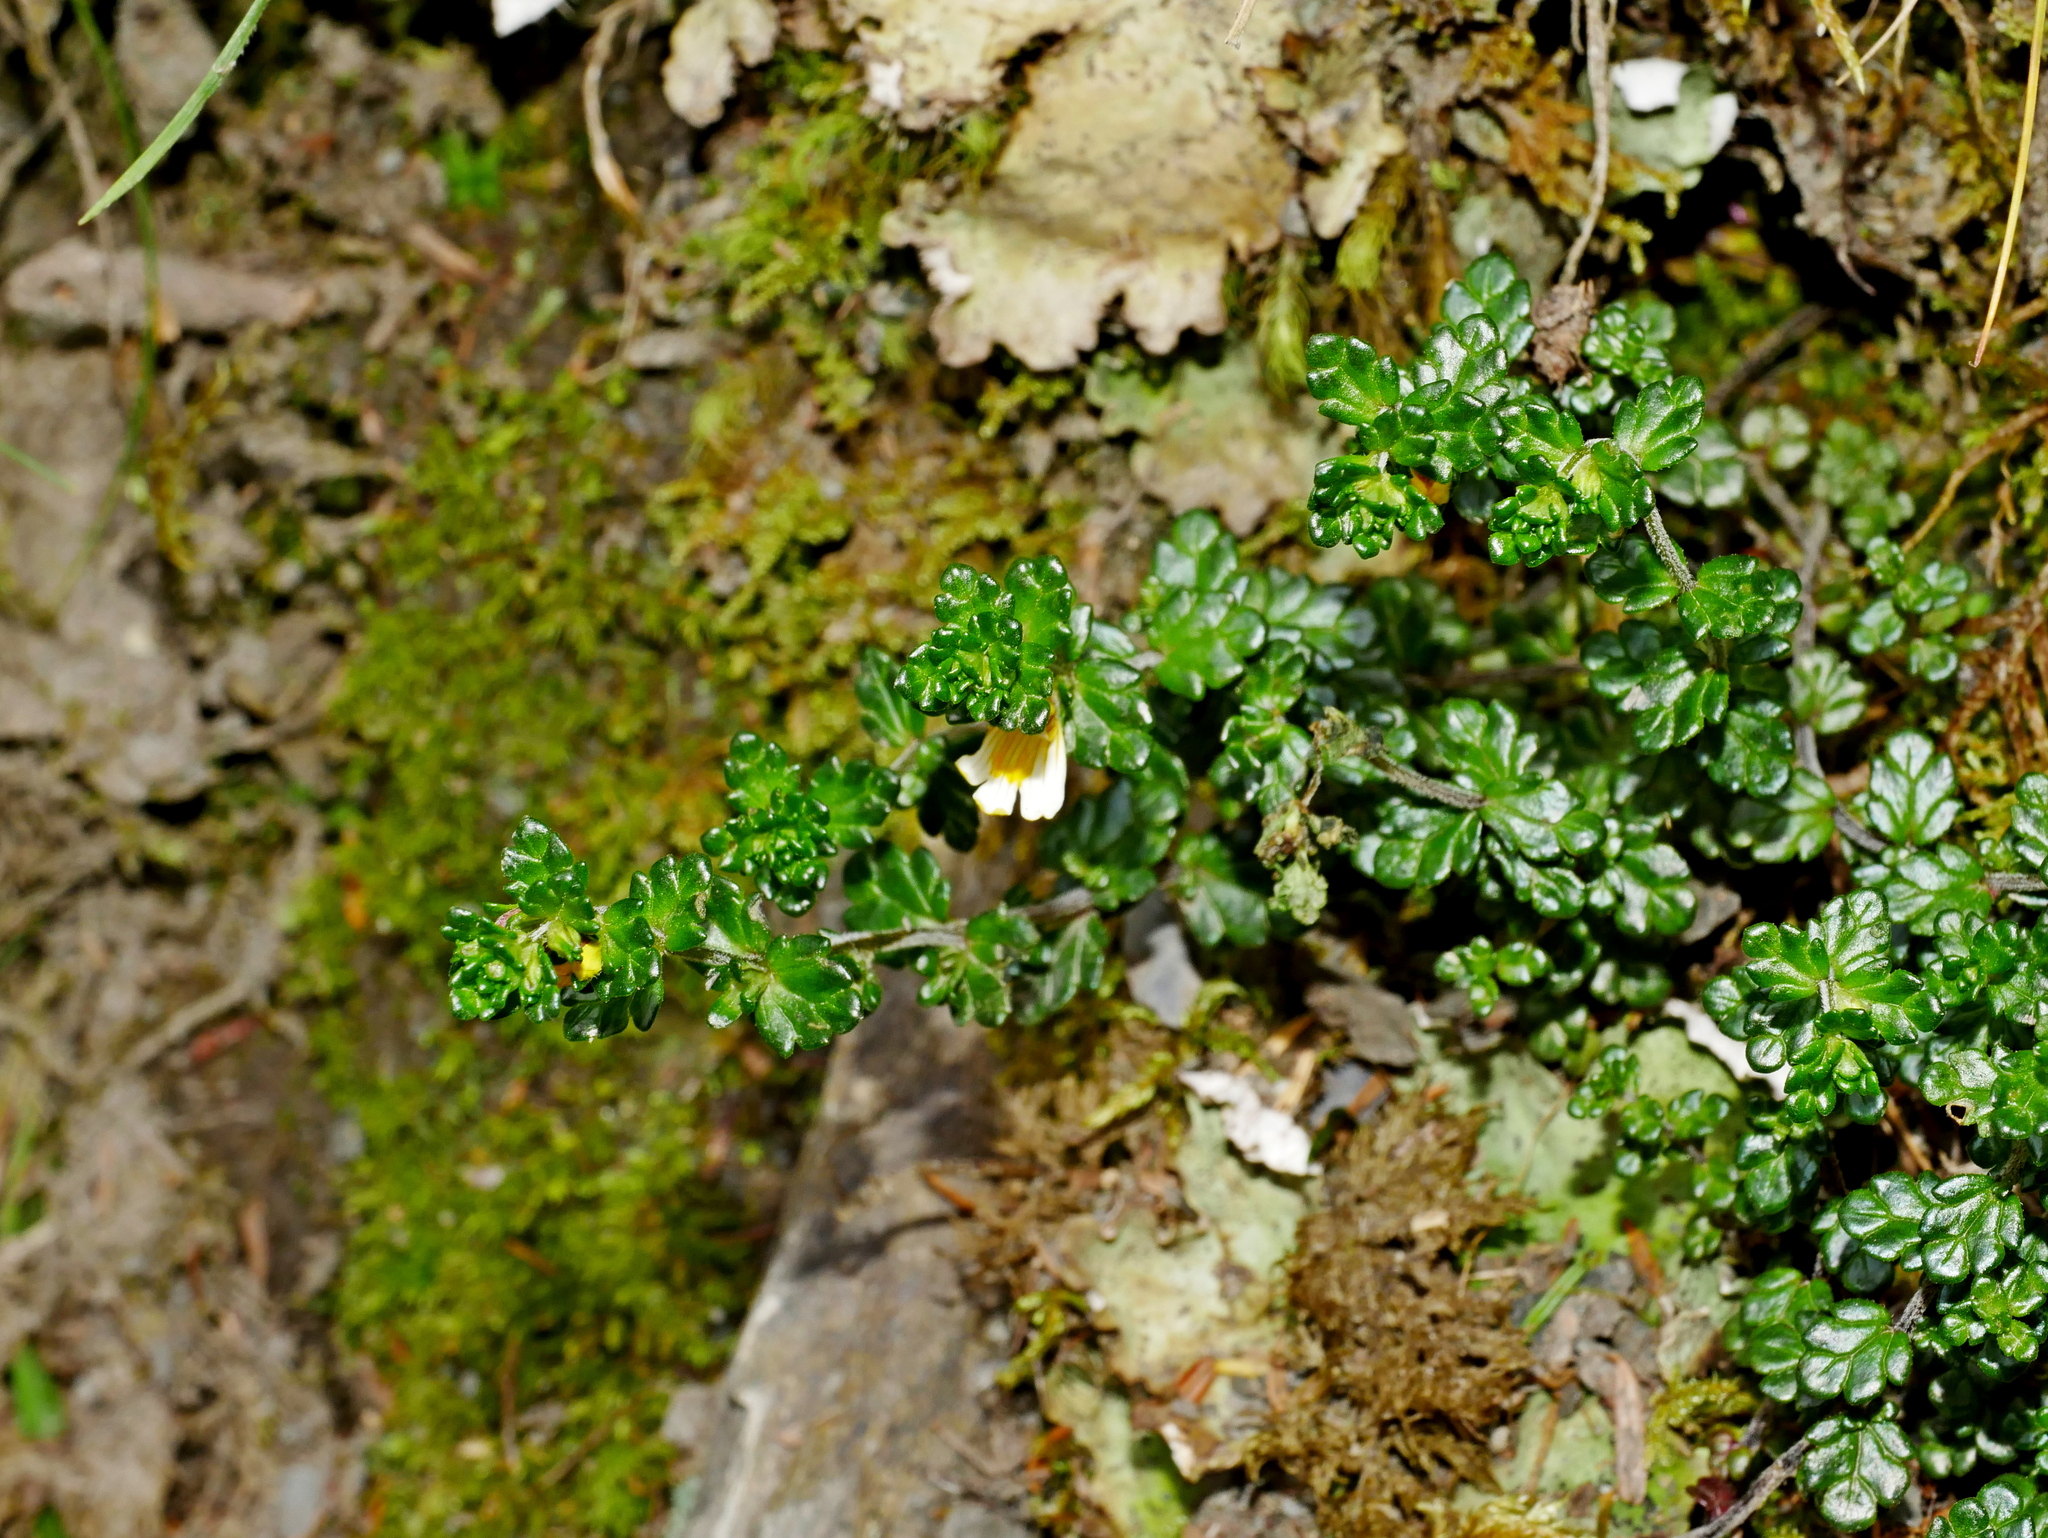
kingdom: Plantae
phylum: Tracheophyta
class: Magnoliopsida
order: Lamiales
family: Orobanchaceae
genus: Euphrasia
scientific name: Euphrasia transmorrisonensis
